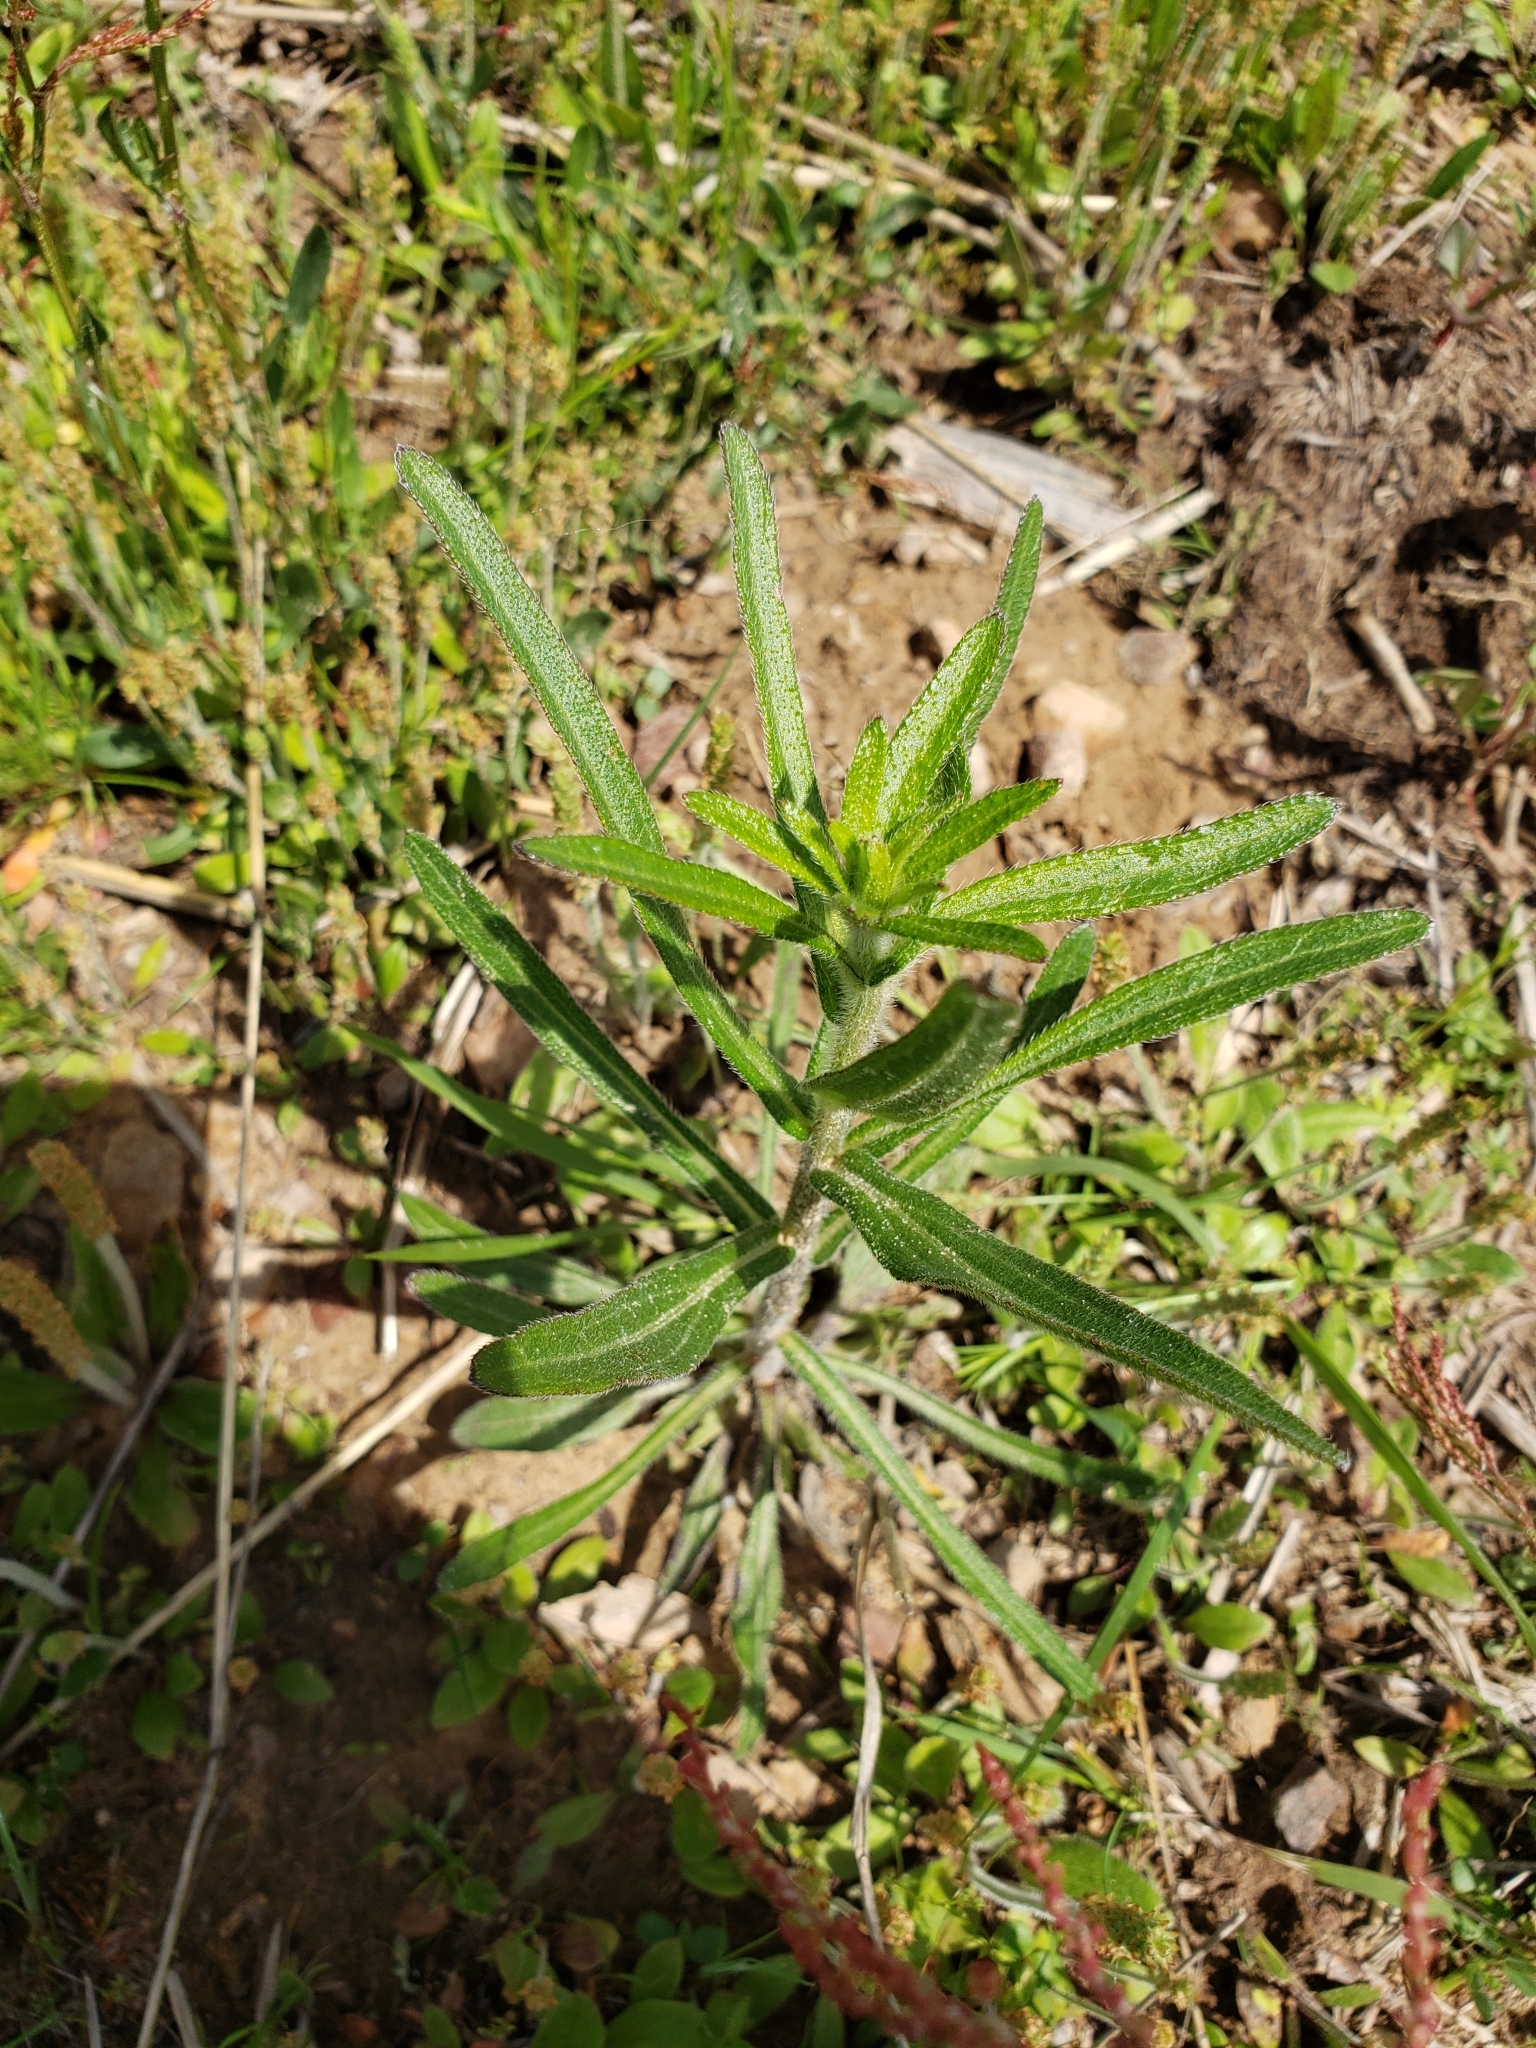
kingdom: Plantae
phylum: Tracheophyta
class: Magnoliopsida
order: Gentianales
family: Apocynaceae
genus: Asclepias
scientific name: Asclepias tuberosa
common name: Butterfly milkweed
